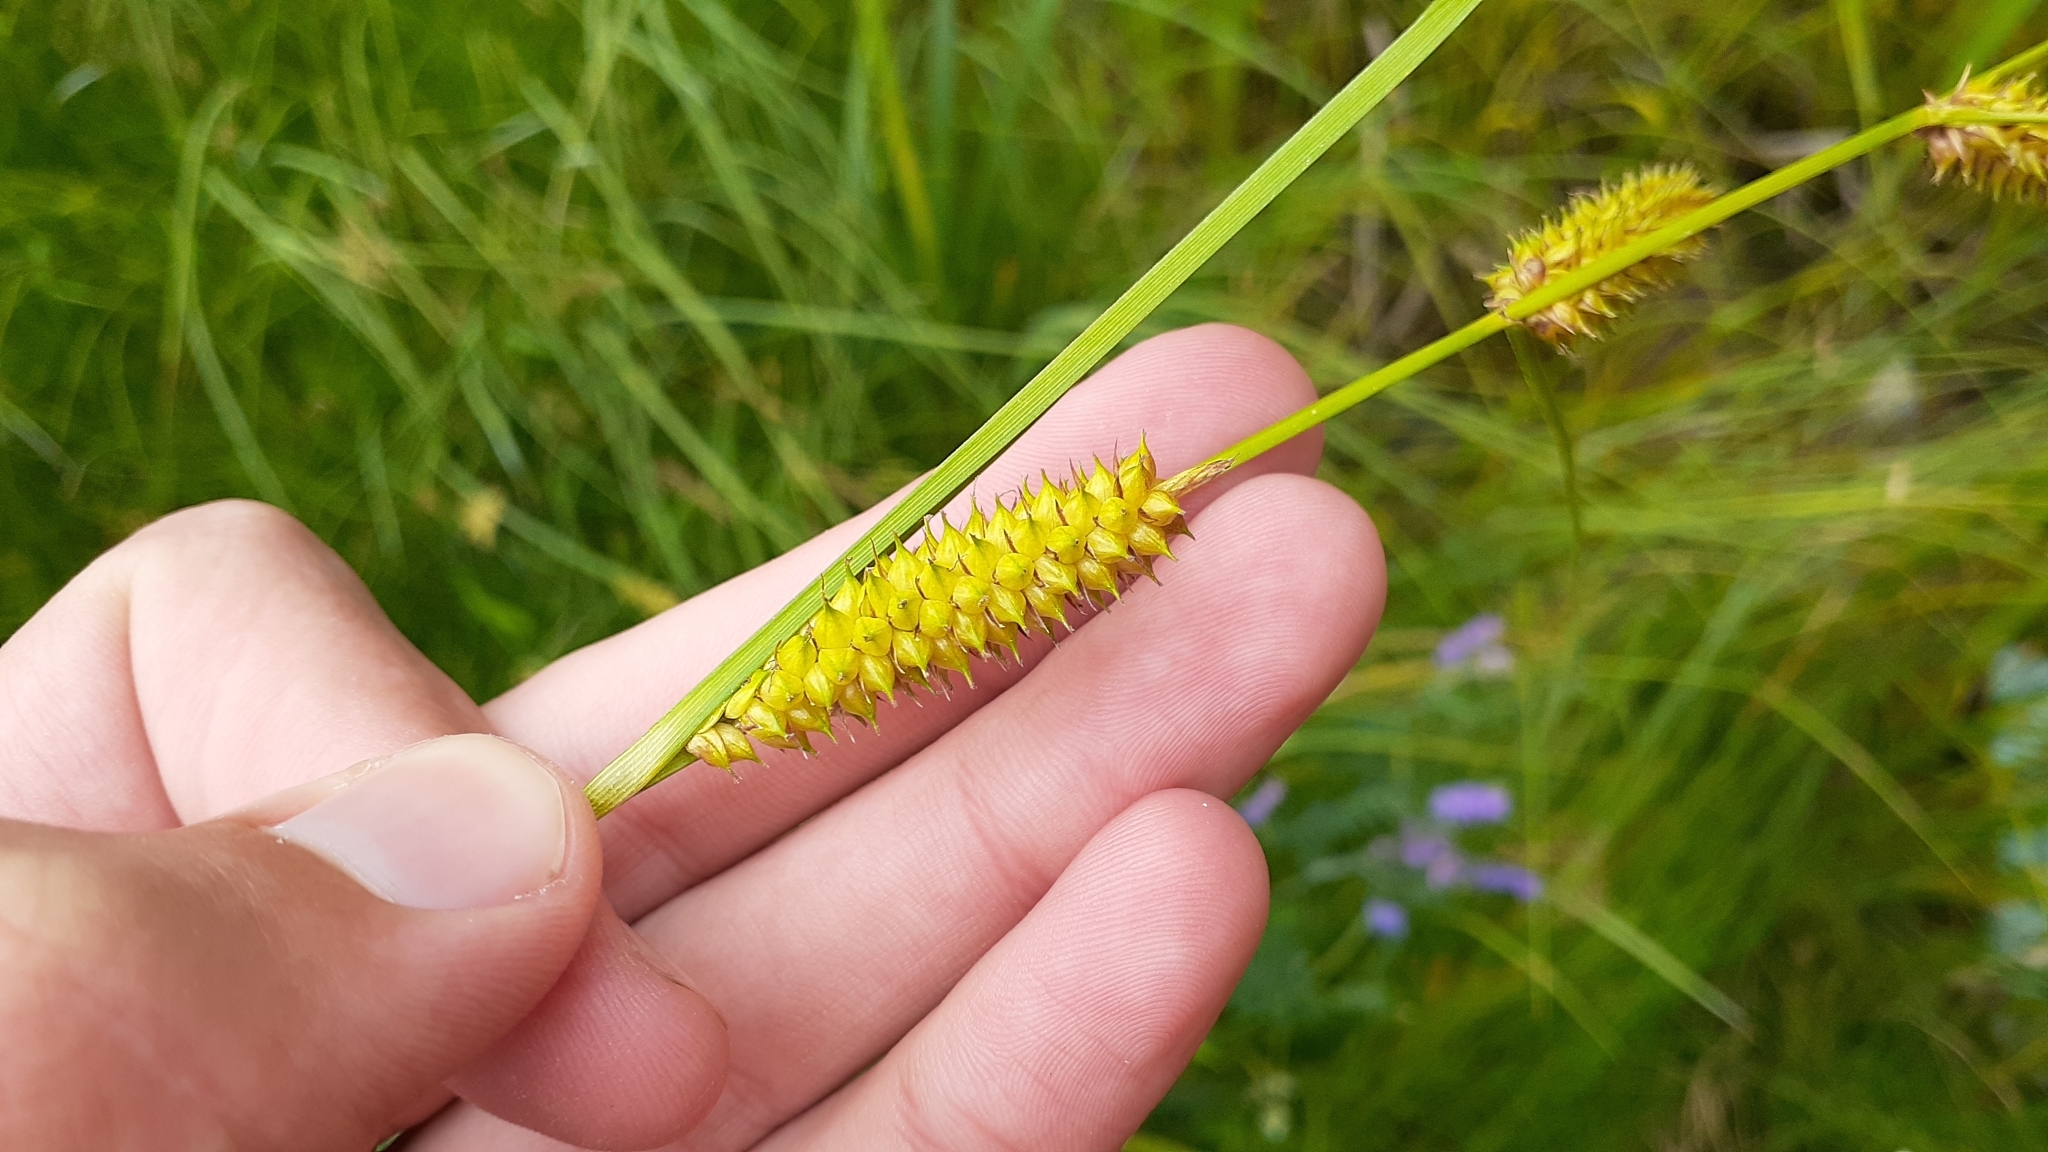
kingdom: Plantae
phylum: Tracheophyta
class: Liliopsida
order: Poales
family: Cyperaceae
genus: Carex
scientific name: Carex utriculata
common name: Beaked sedge
